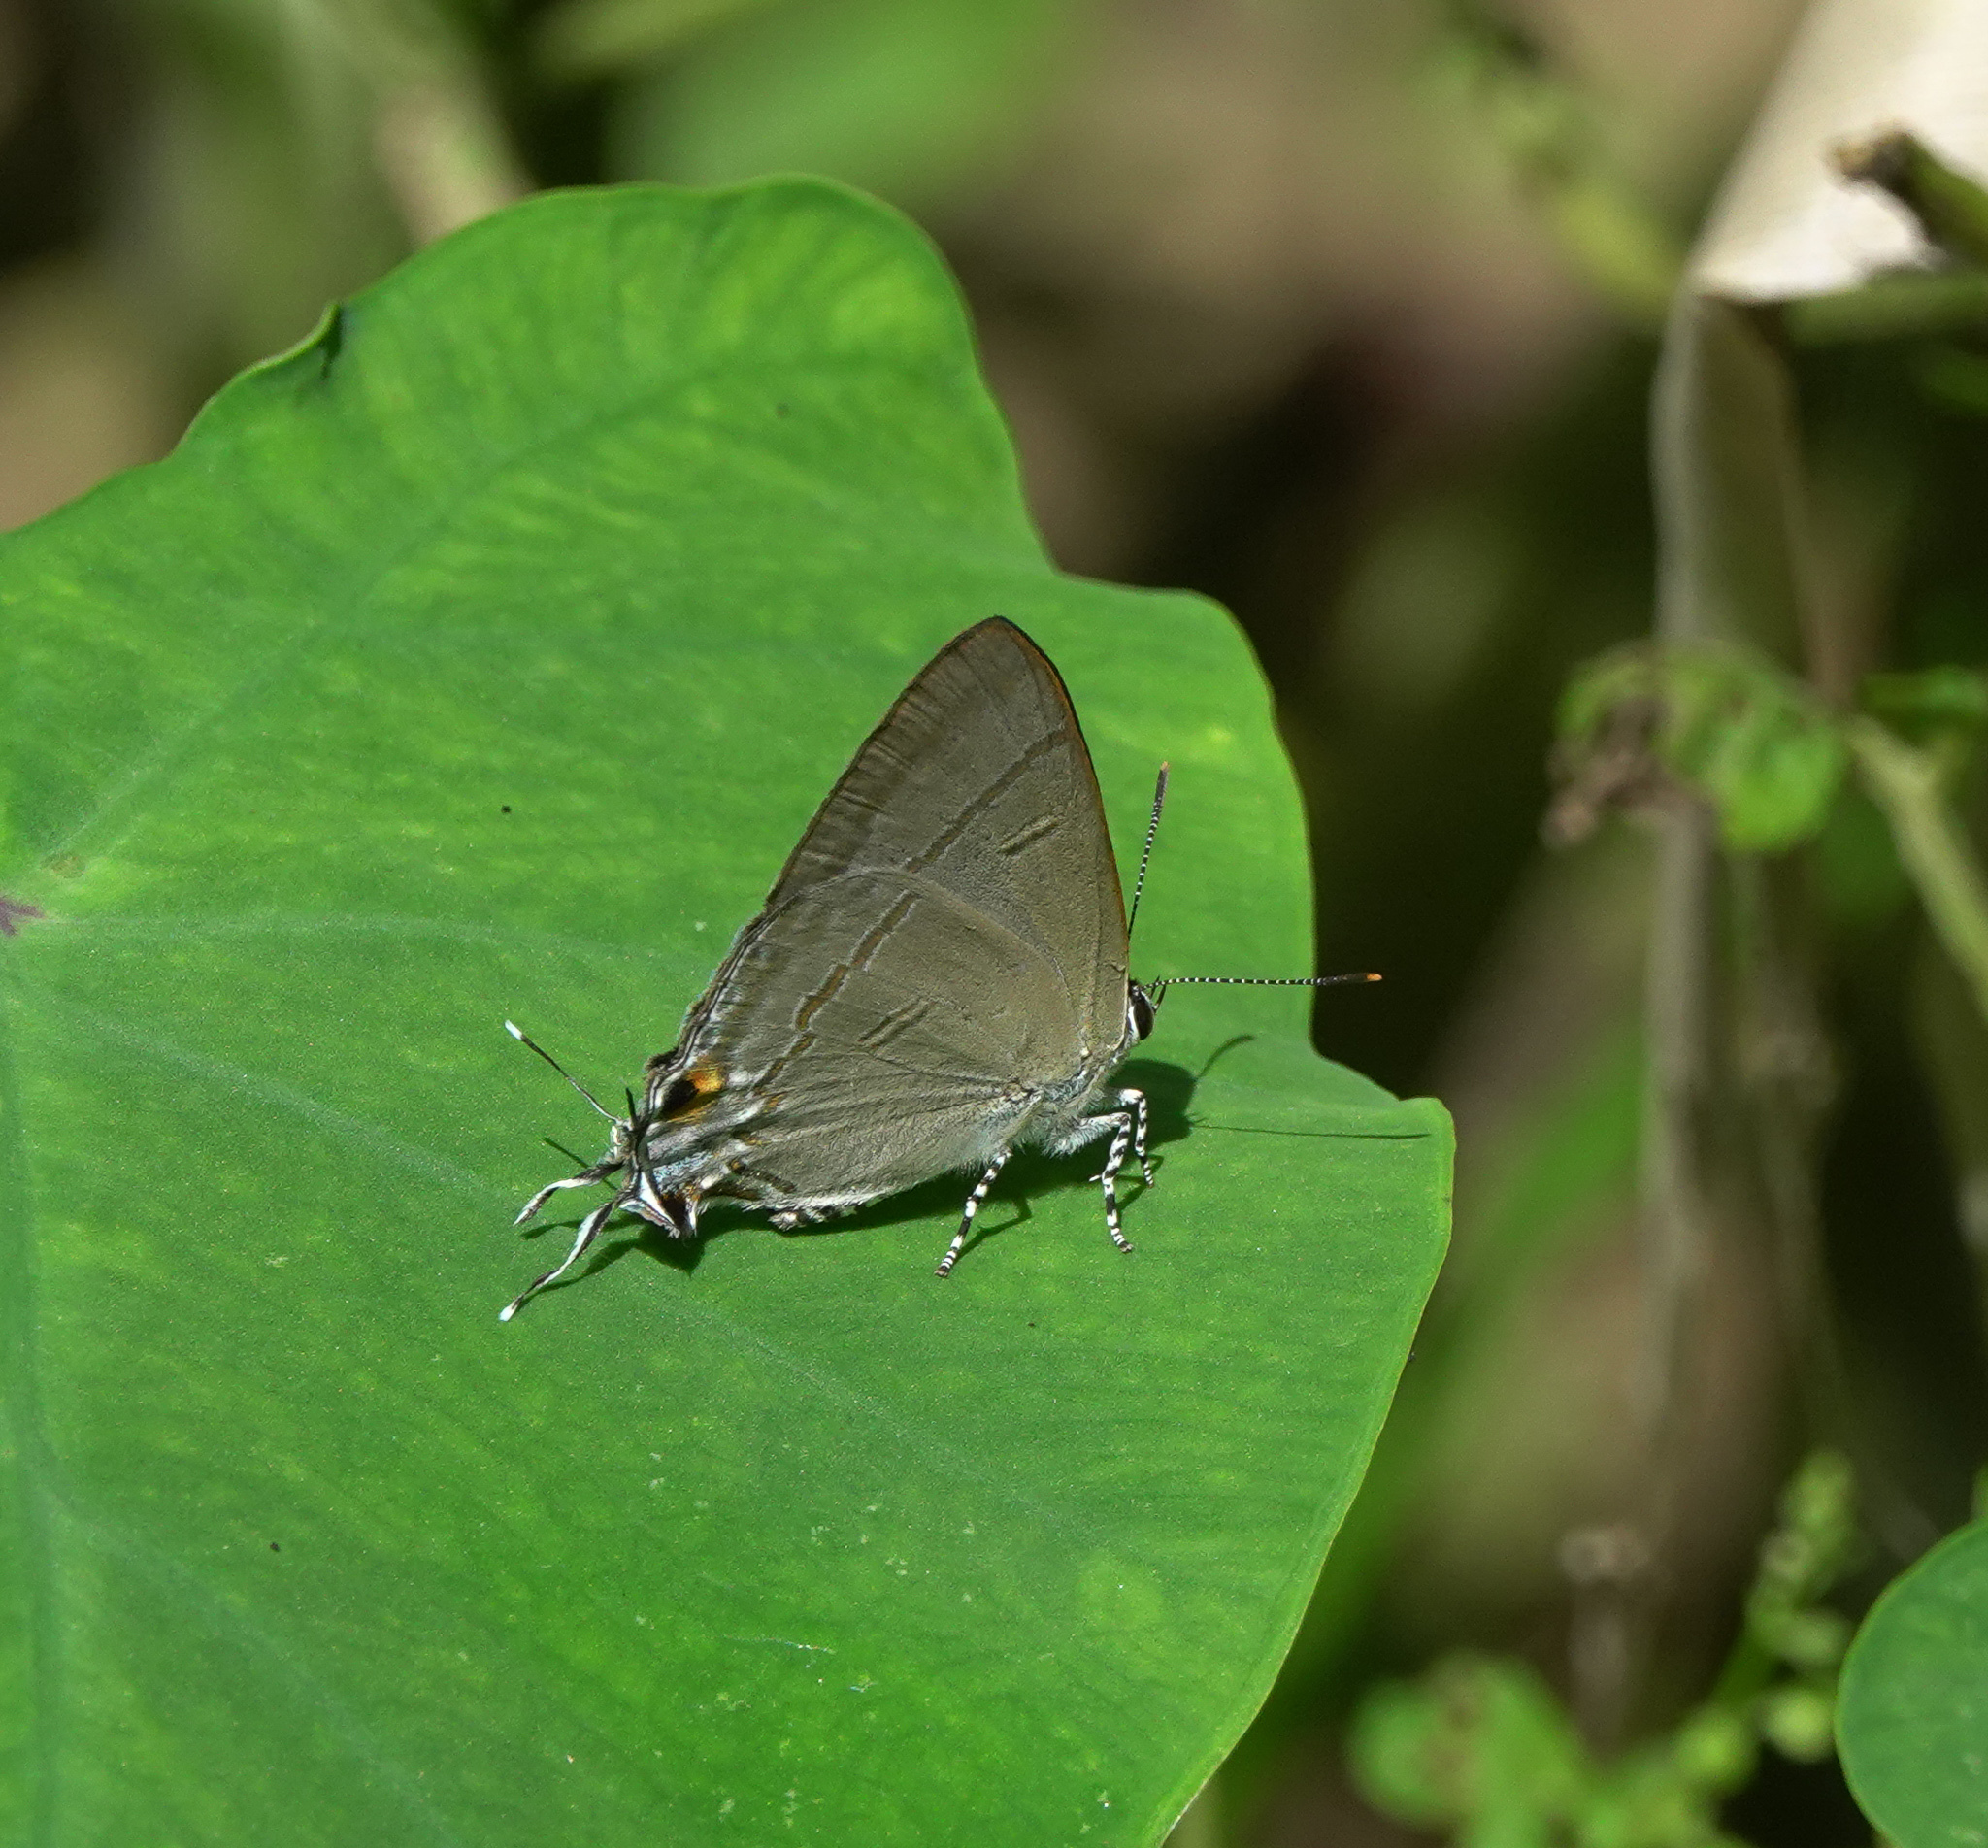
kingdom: Animalia
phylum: Arthropoda
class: Insecta
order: Lepidoptera
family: Lycaenidae
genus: Hypolycaena
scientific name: Hypolycaena erylus
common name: Common tit
